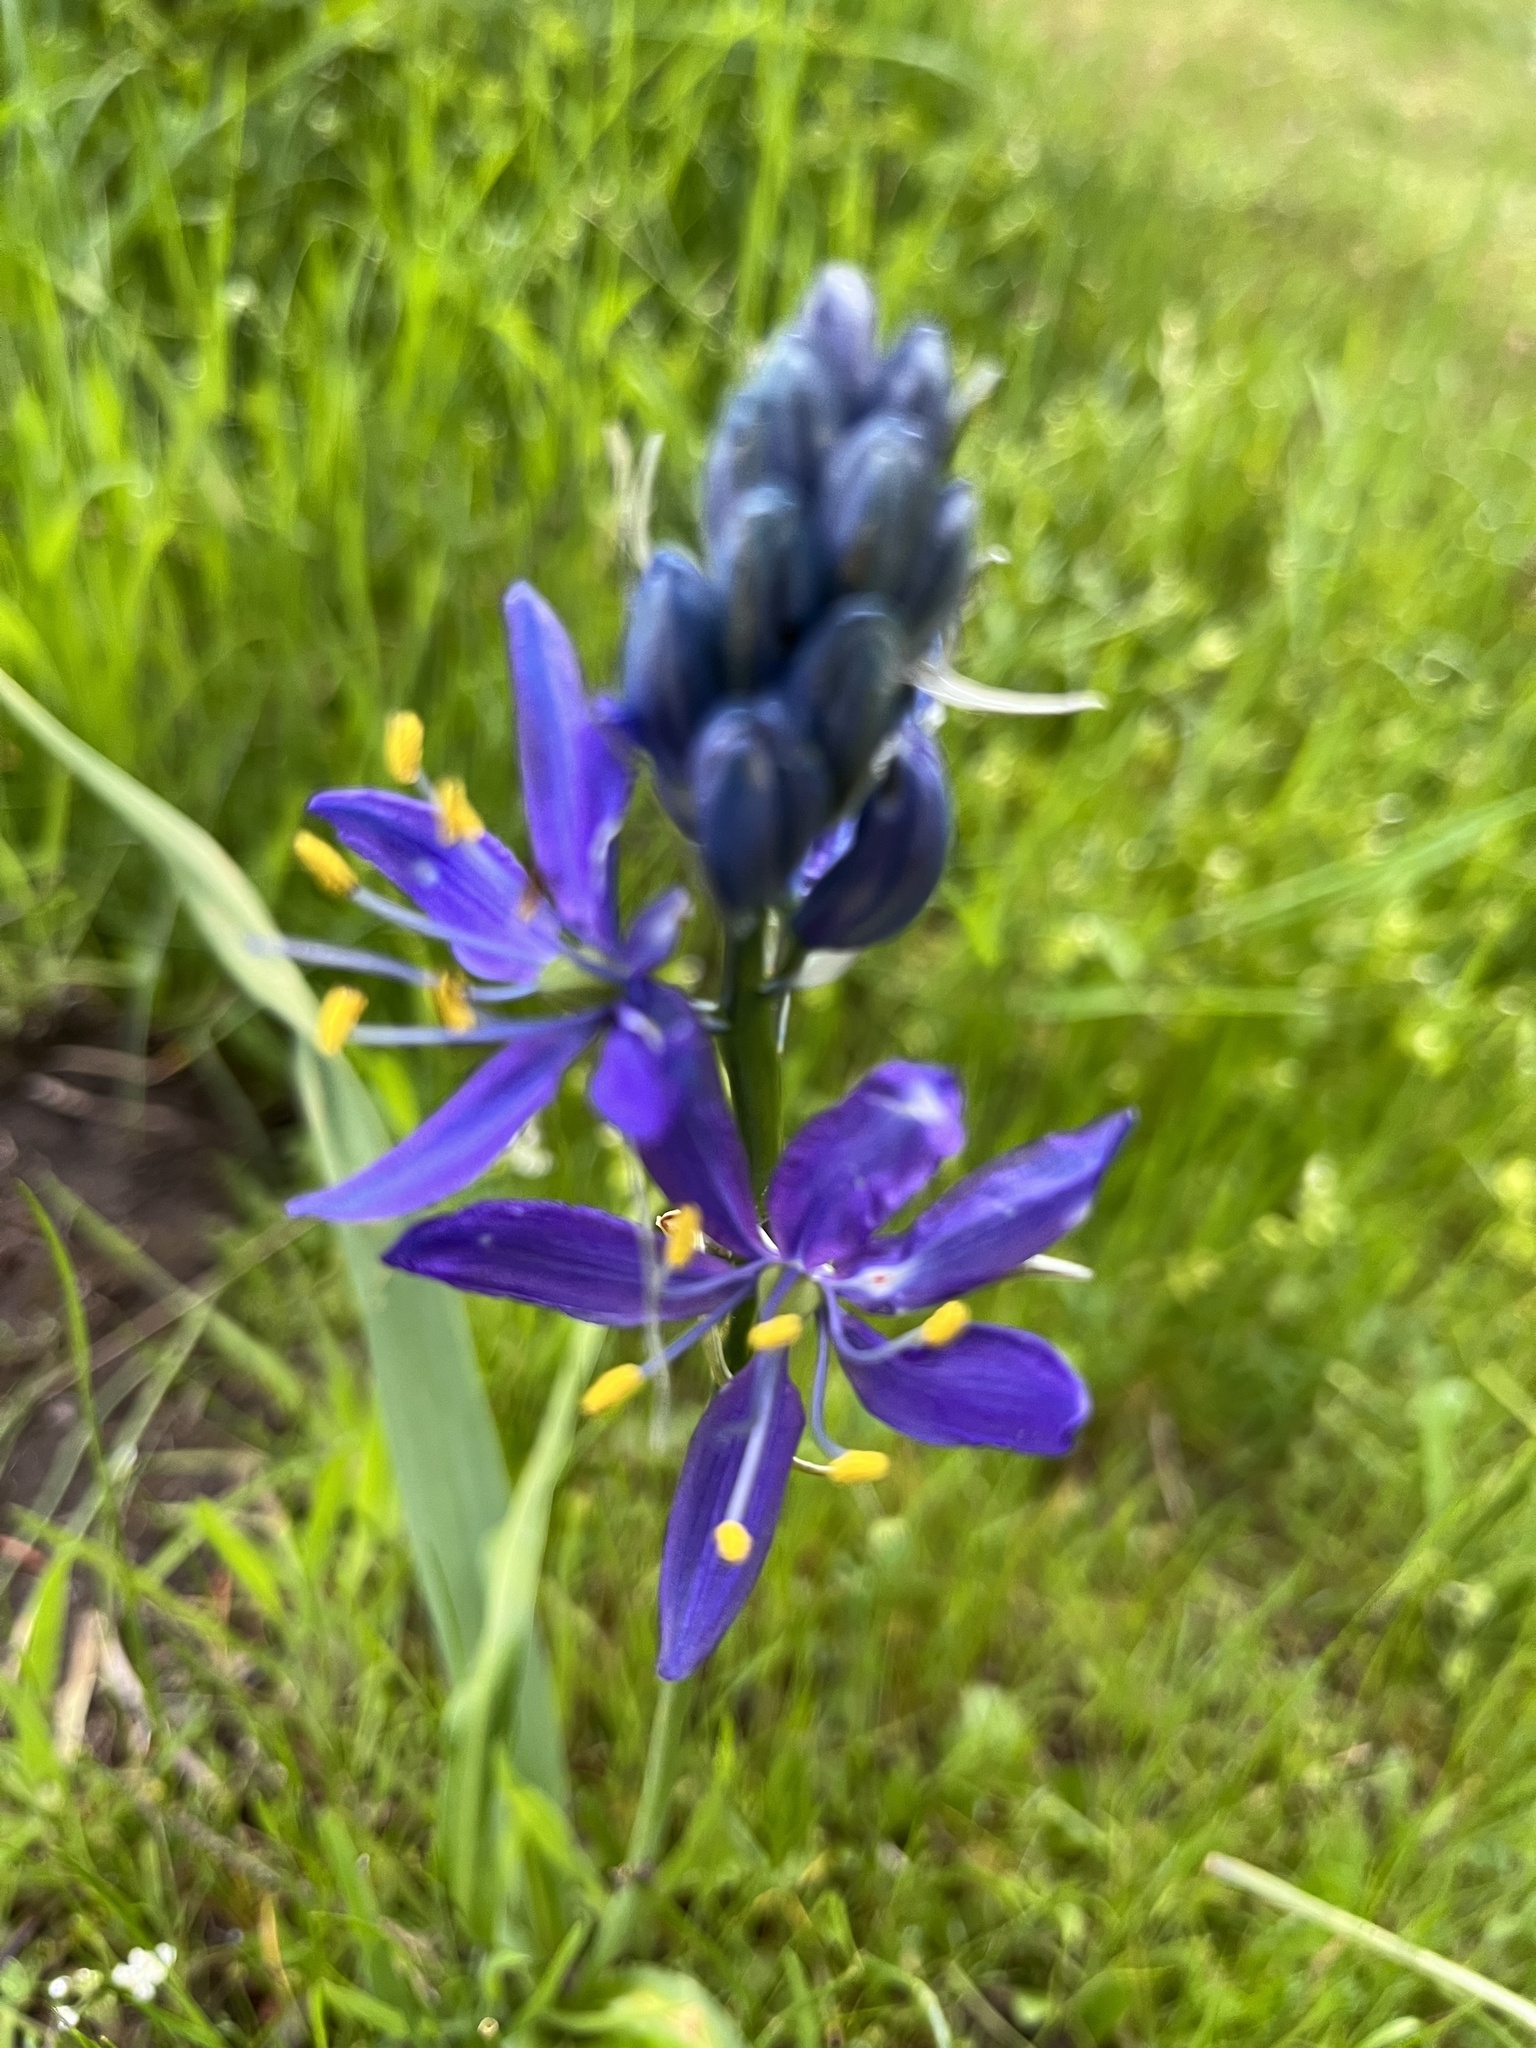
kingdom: Plantae
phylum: Tracheophyta
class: Liliopsida
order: Asparagales
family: Asparagaceae
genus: Camassia
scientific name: Camassia quamash
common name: Common camas
